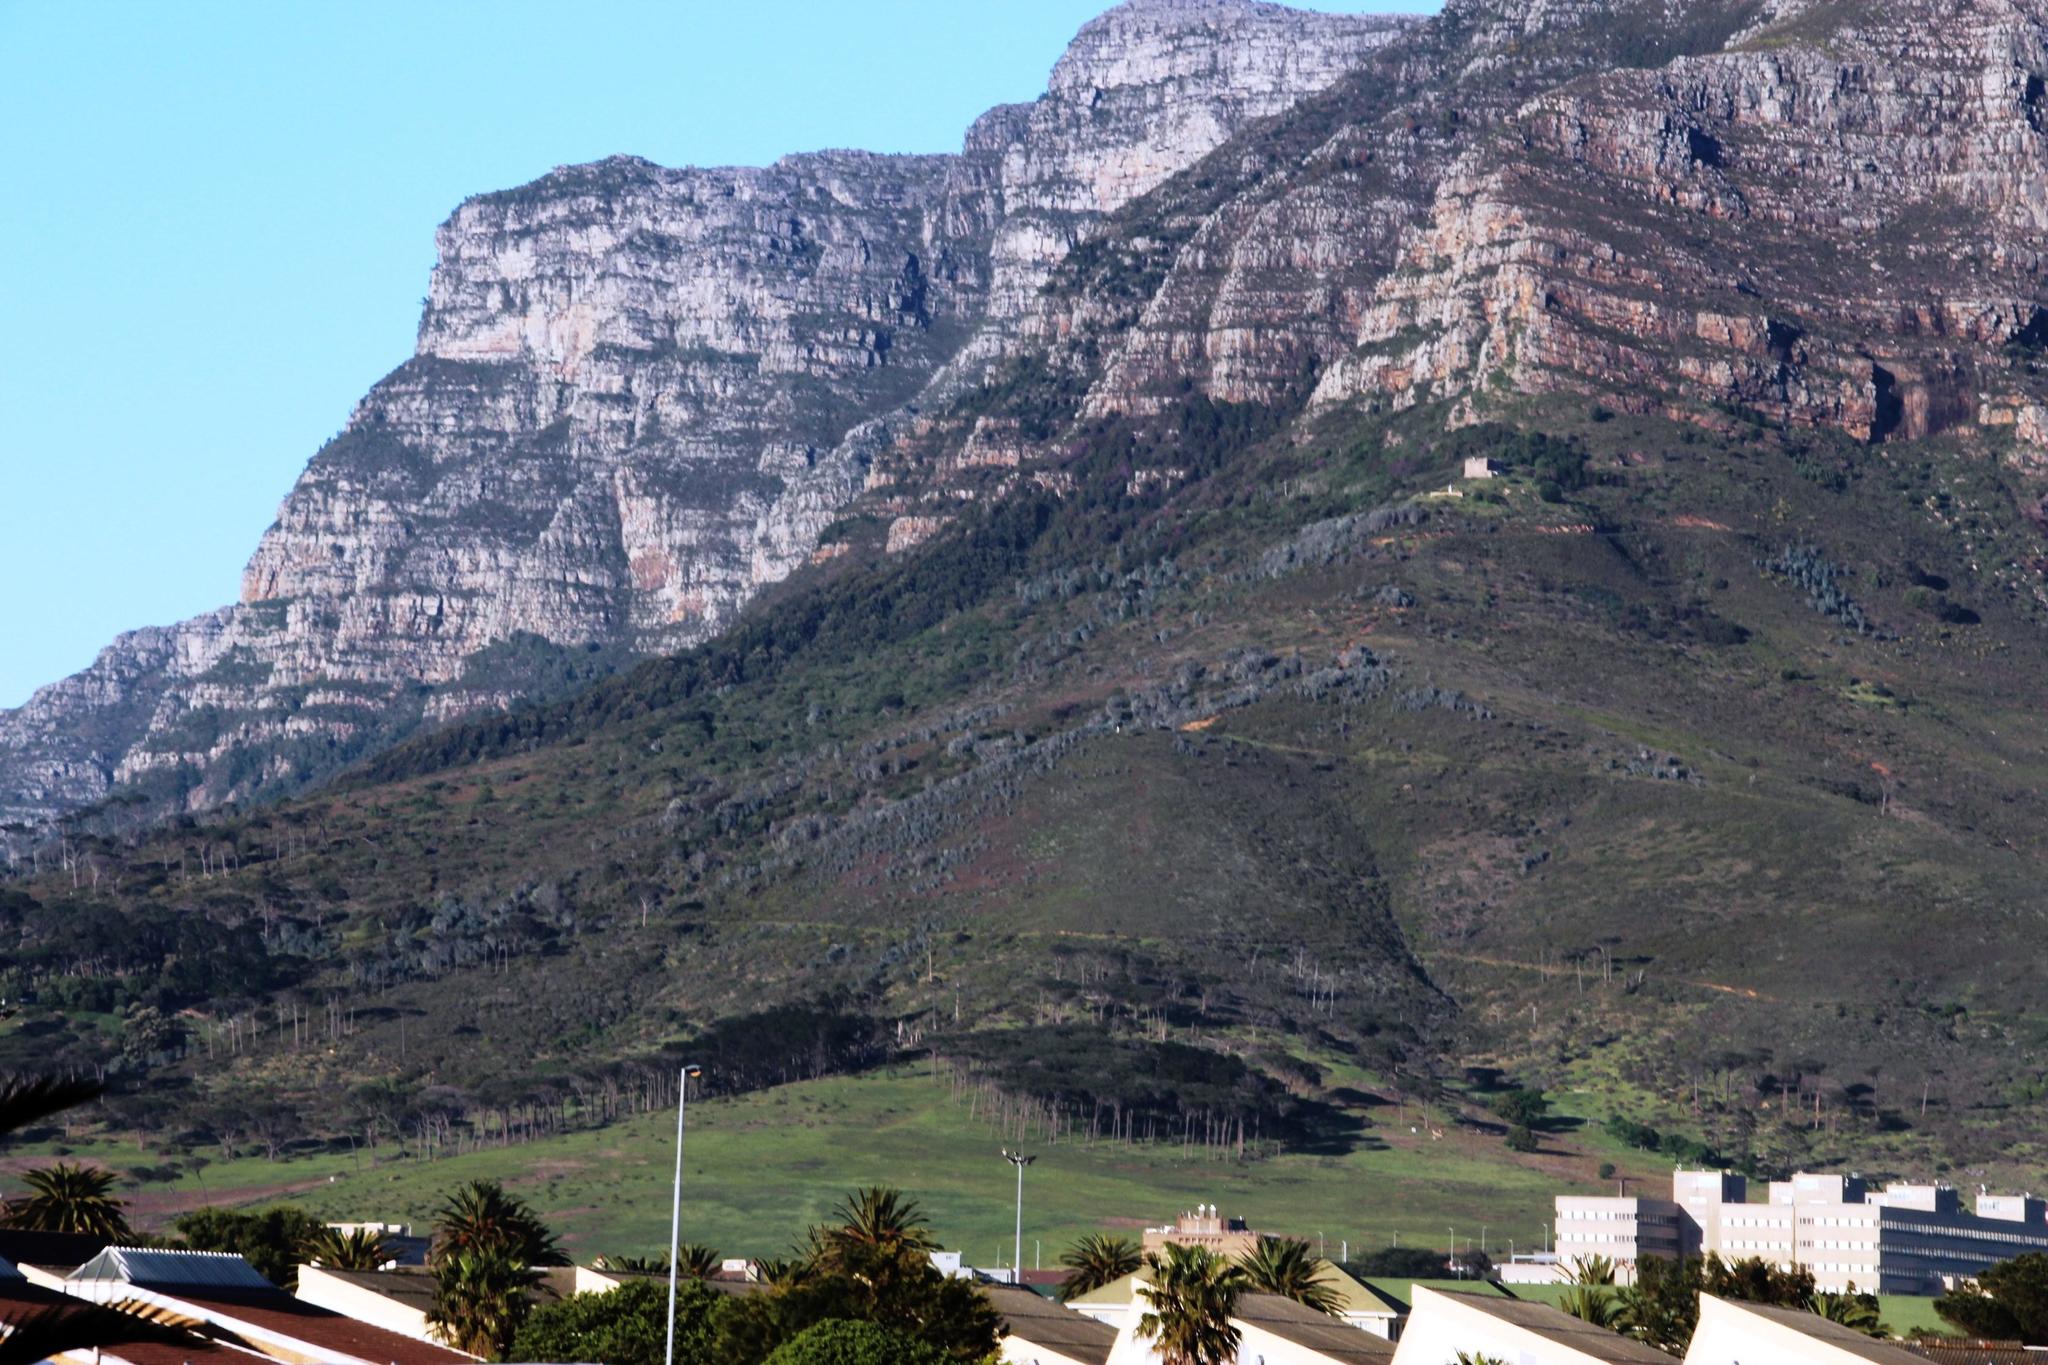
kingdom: Plantae
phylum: Tracheophyta
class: Magnoliopsida
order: Proteales
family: Proteaceae
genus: Leucadendron
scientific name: Leucadendron argenteum
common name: Cape silver tree
